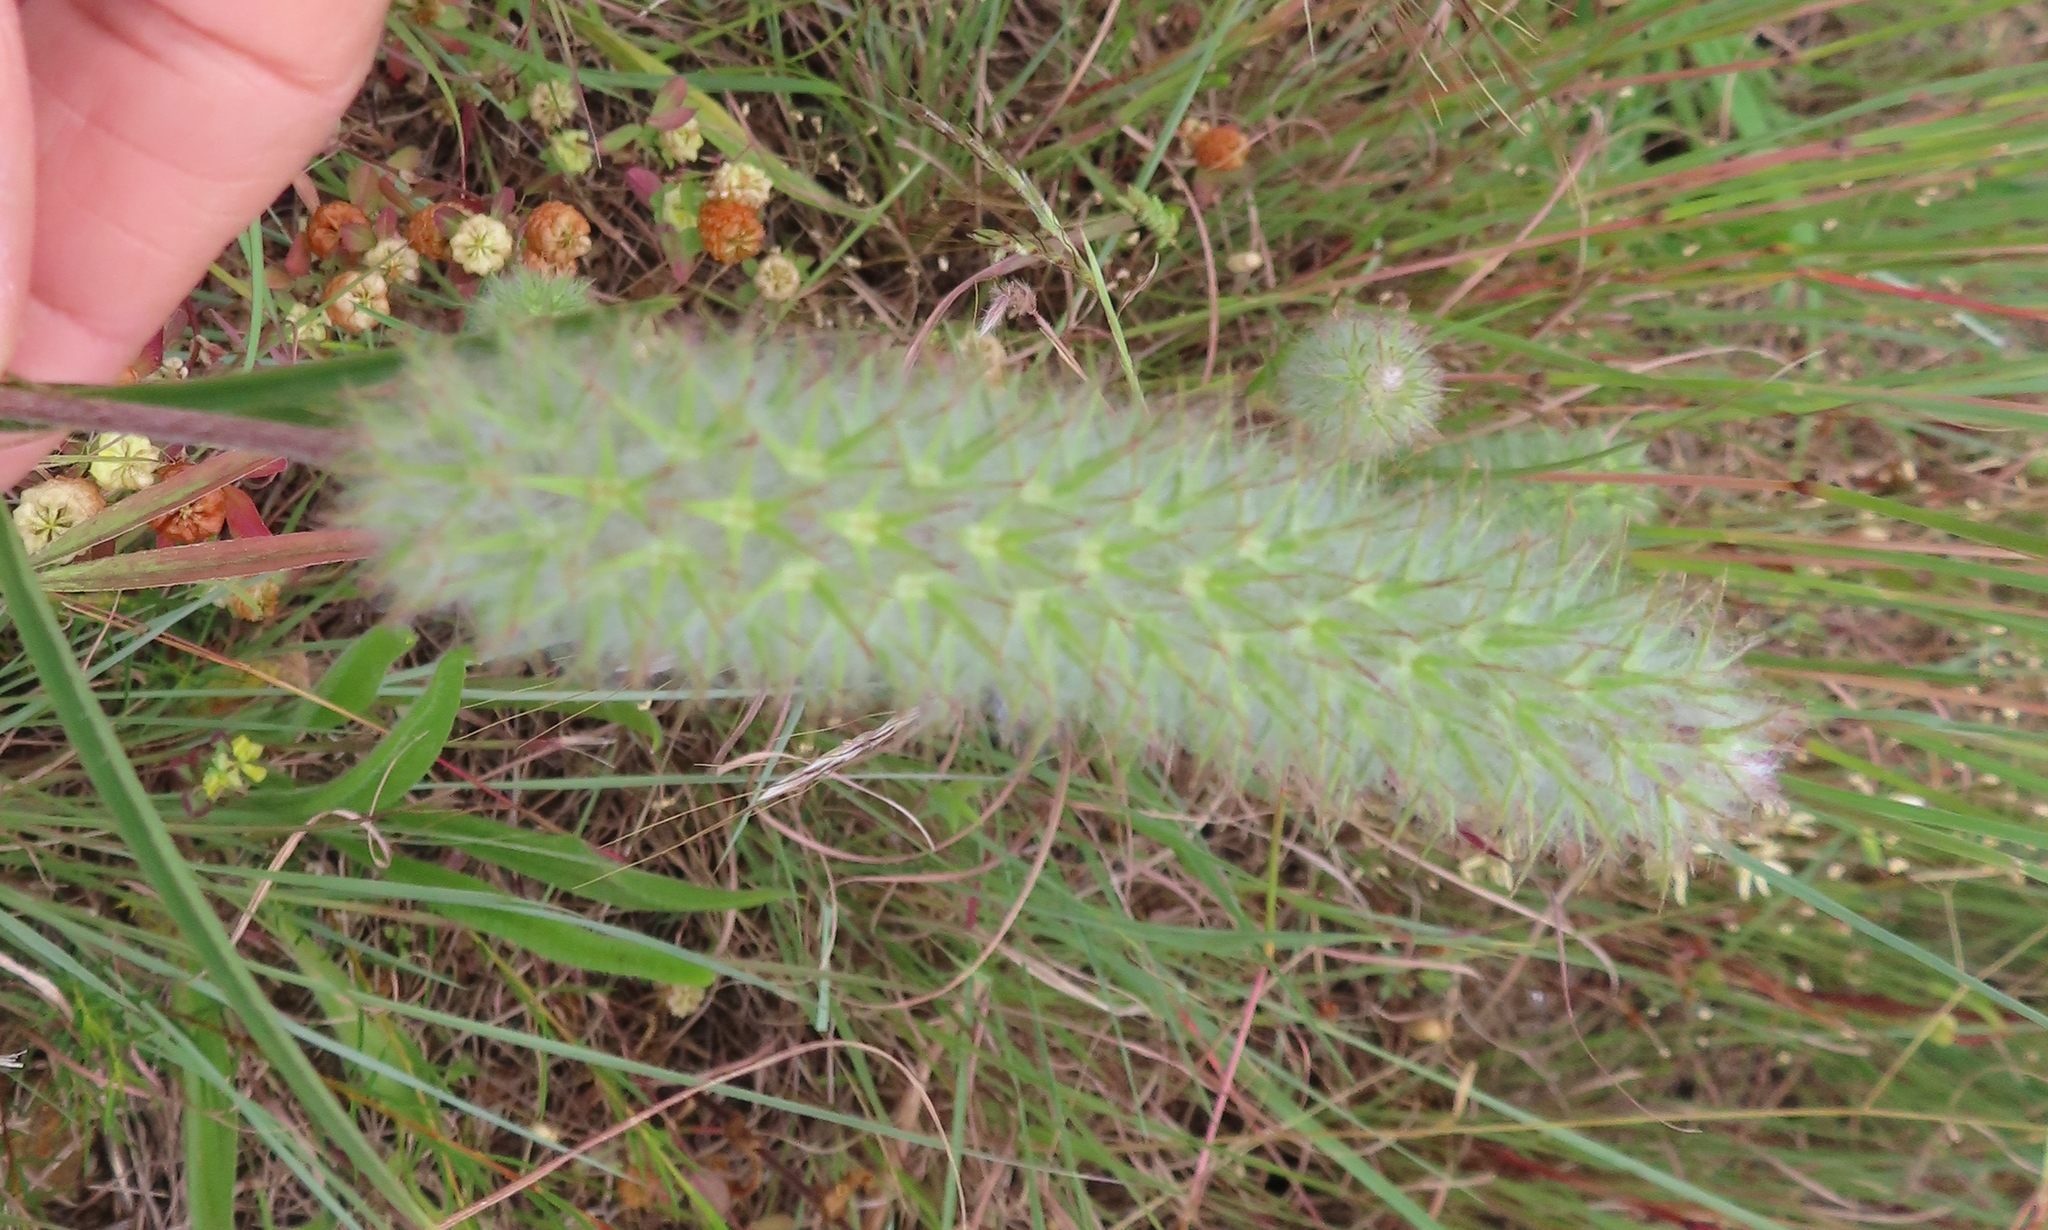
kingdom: Plantae
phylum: Tracheophyta
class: Magnoliopsida
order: Fabales
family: Fabaceae
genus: Trifolium
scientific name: Trifolium angustifolium
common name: Narrow clover
